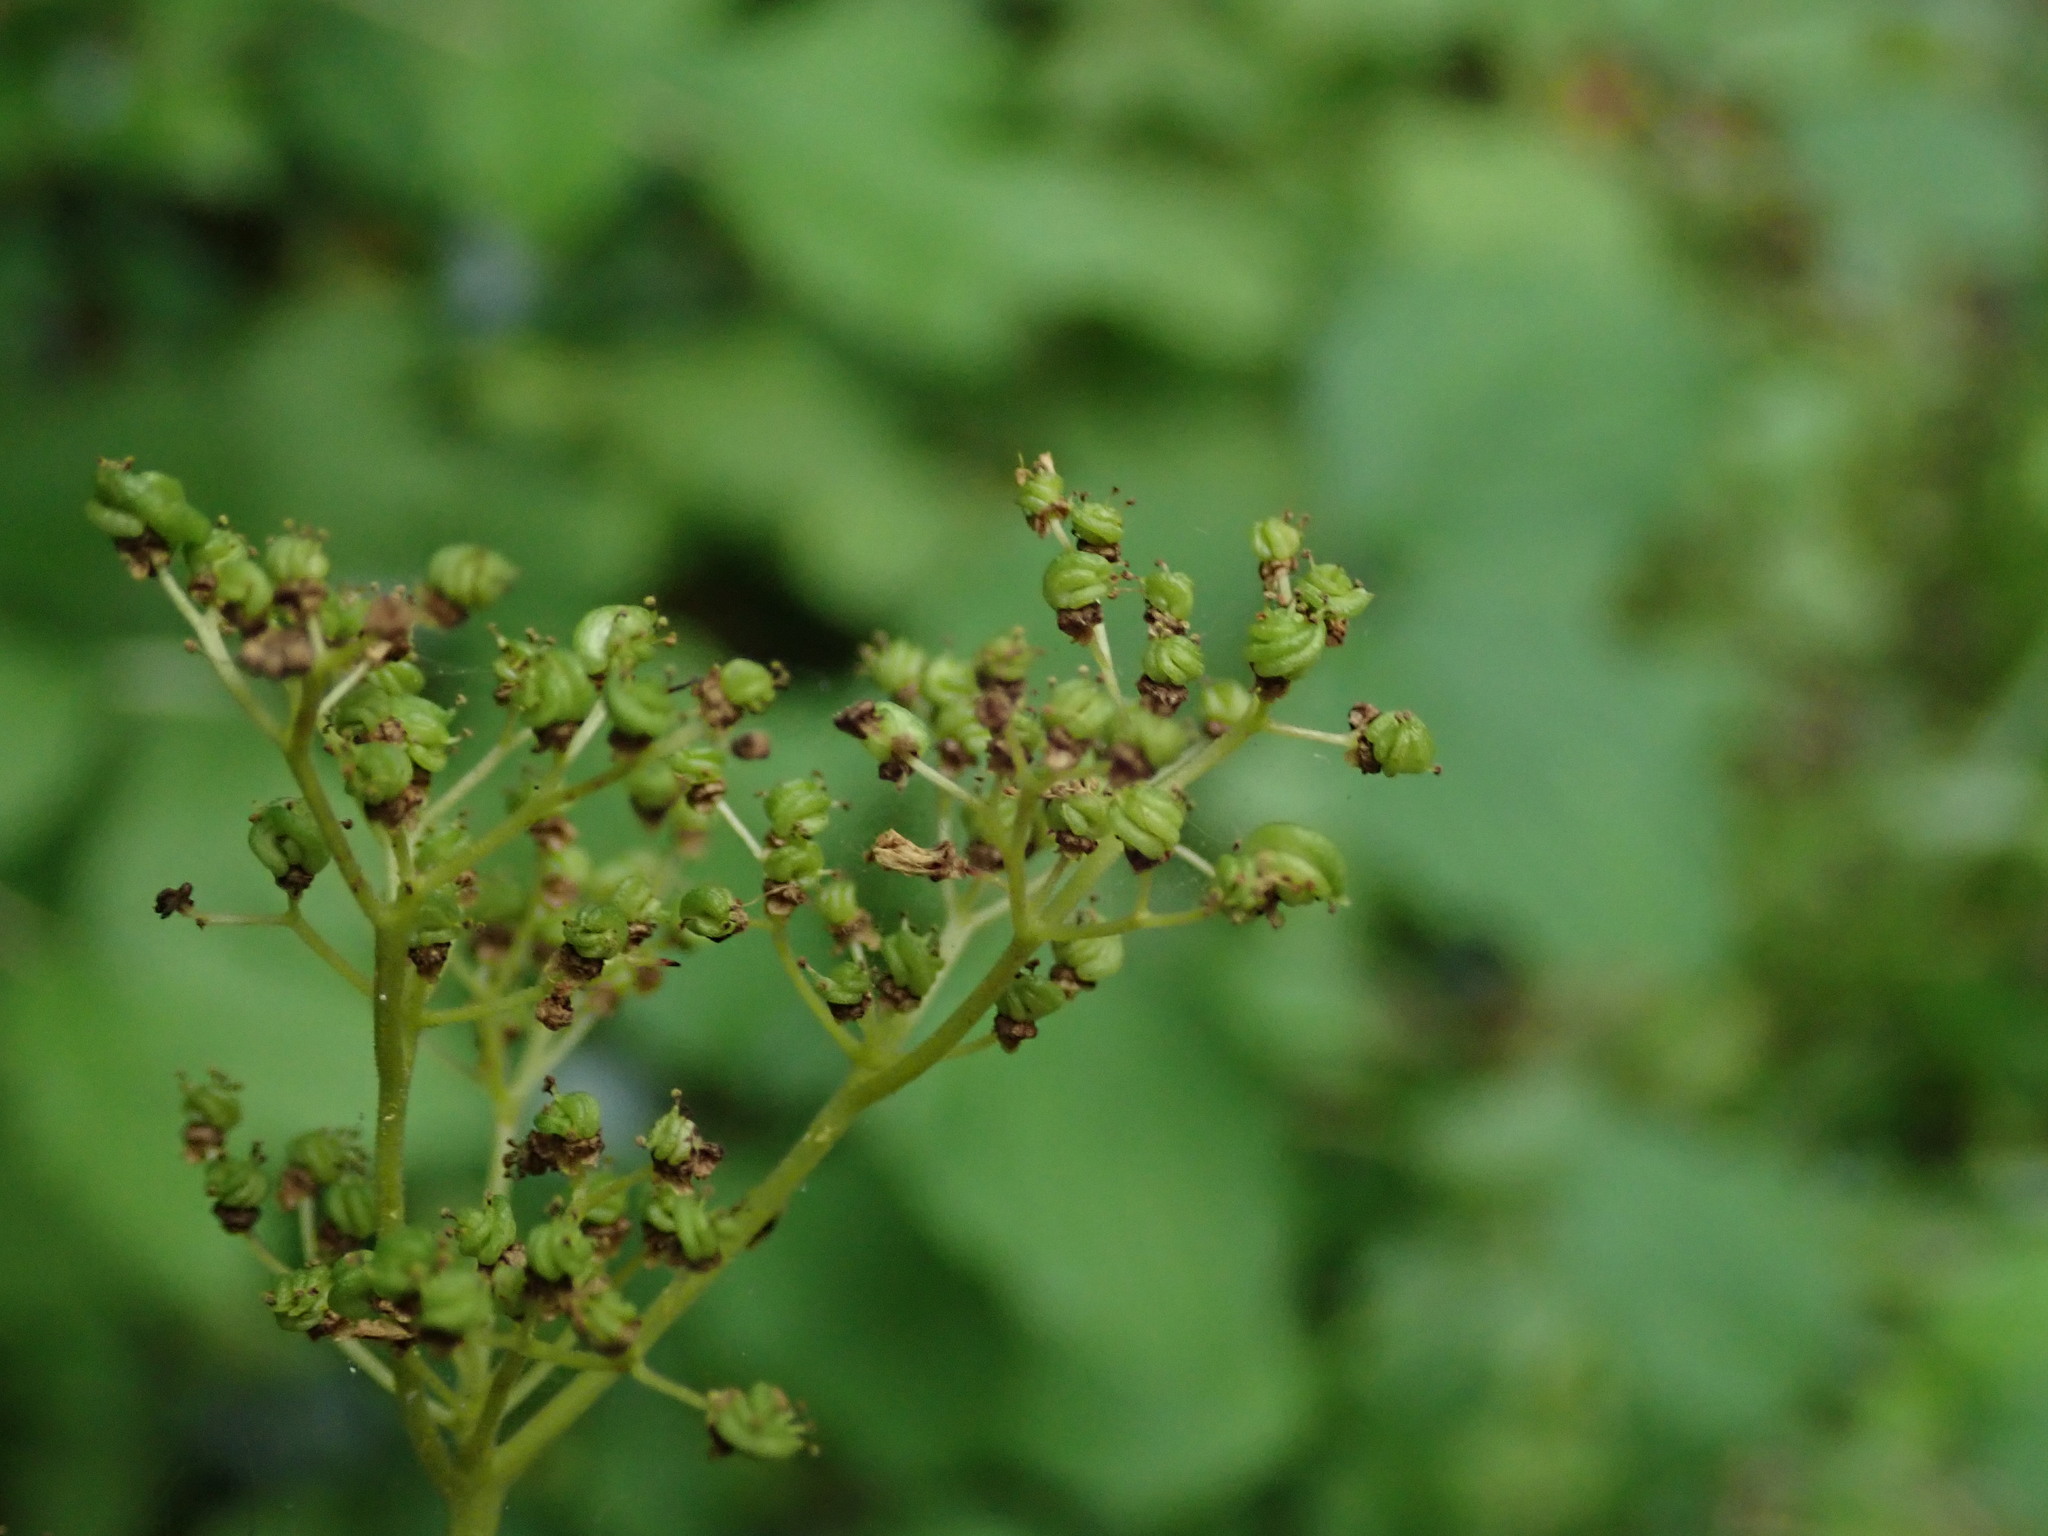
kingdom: Plantae
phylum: Tracheophyta
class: Magnoliopsida
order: Rosales
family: Rosaceae
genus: Filipendula
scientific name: Filipendula ulmaria
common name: Meadowsweet
